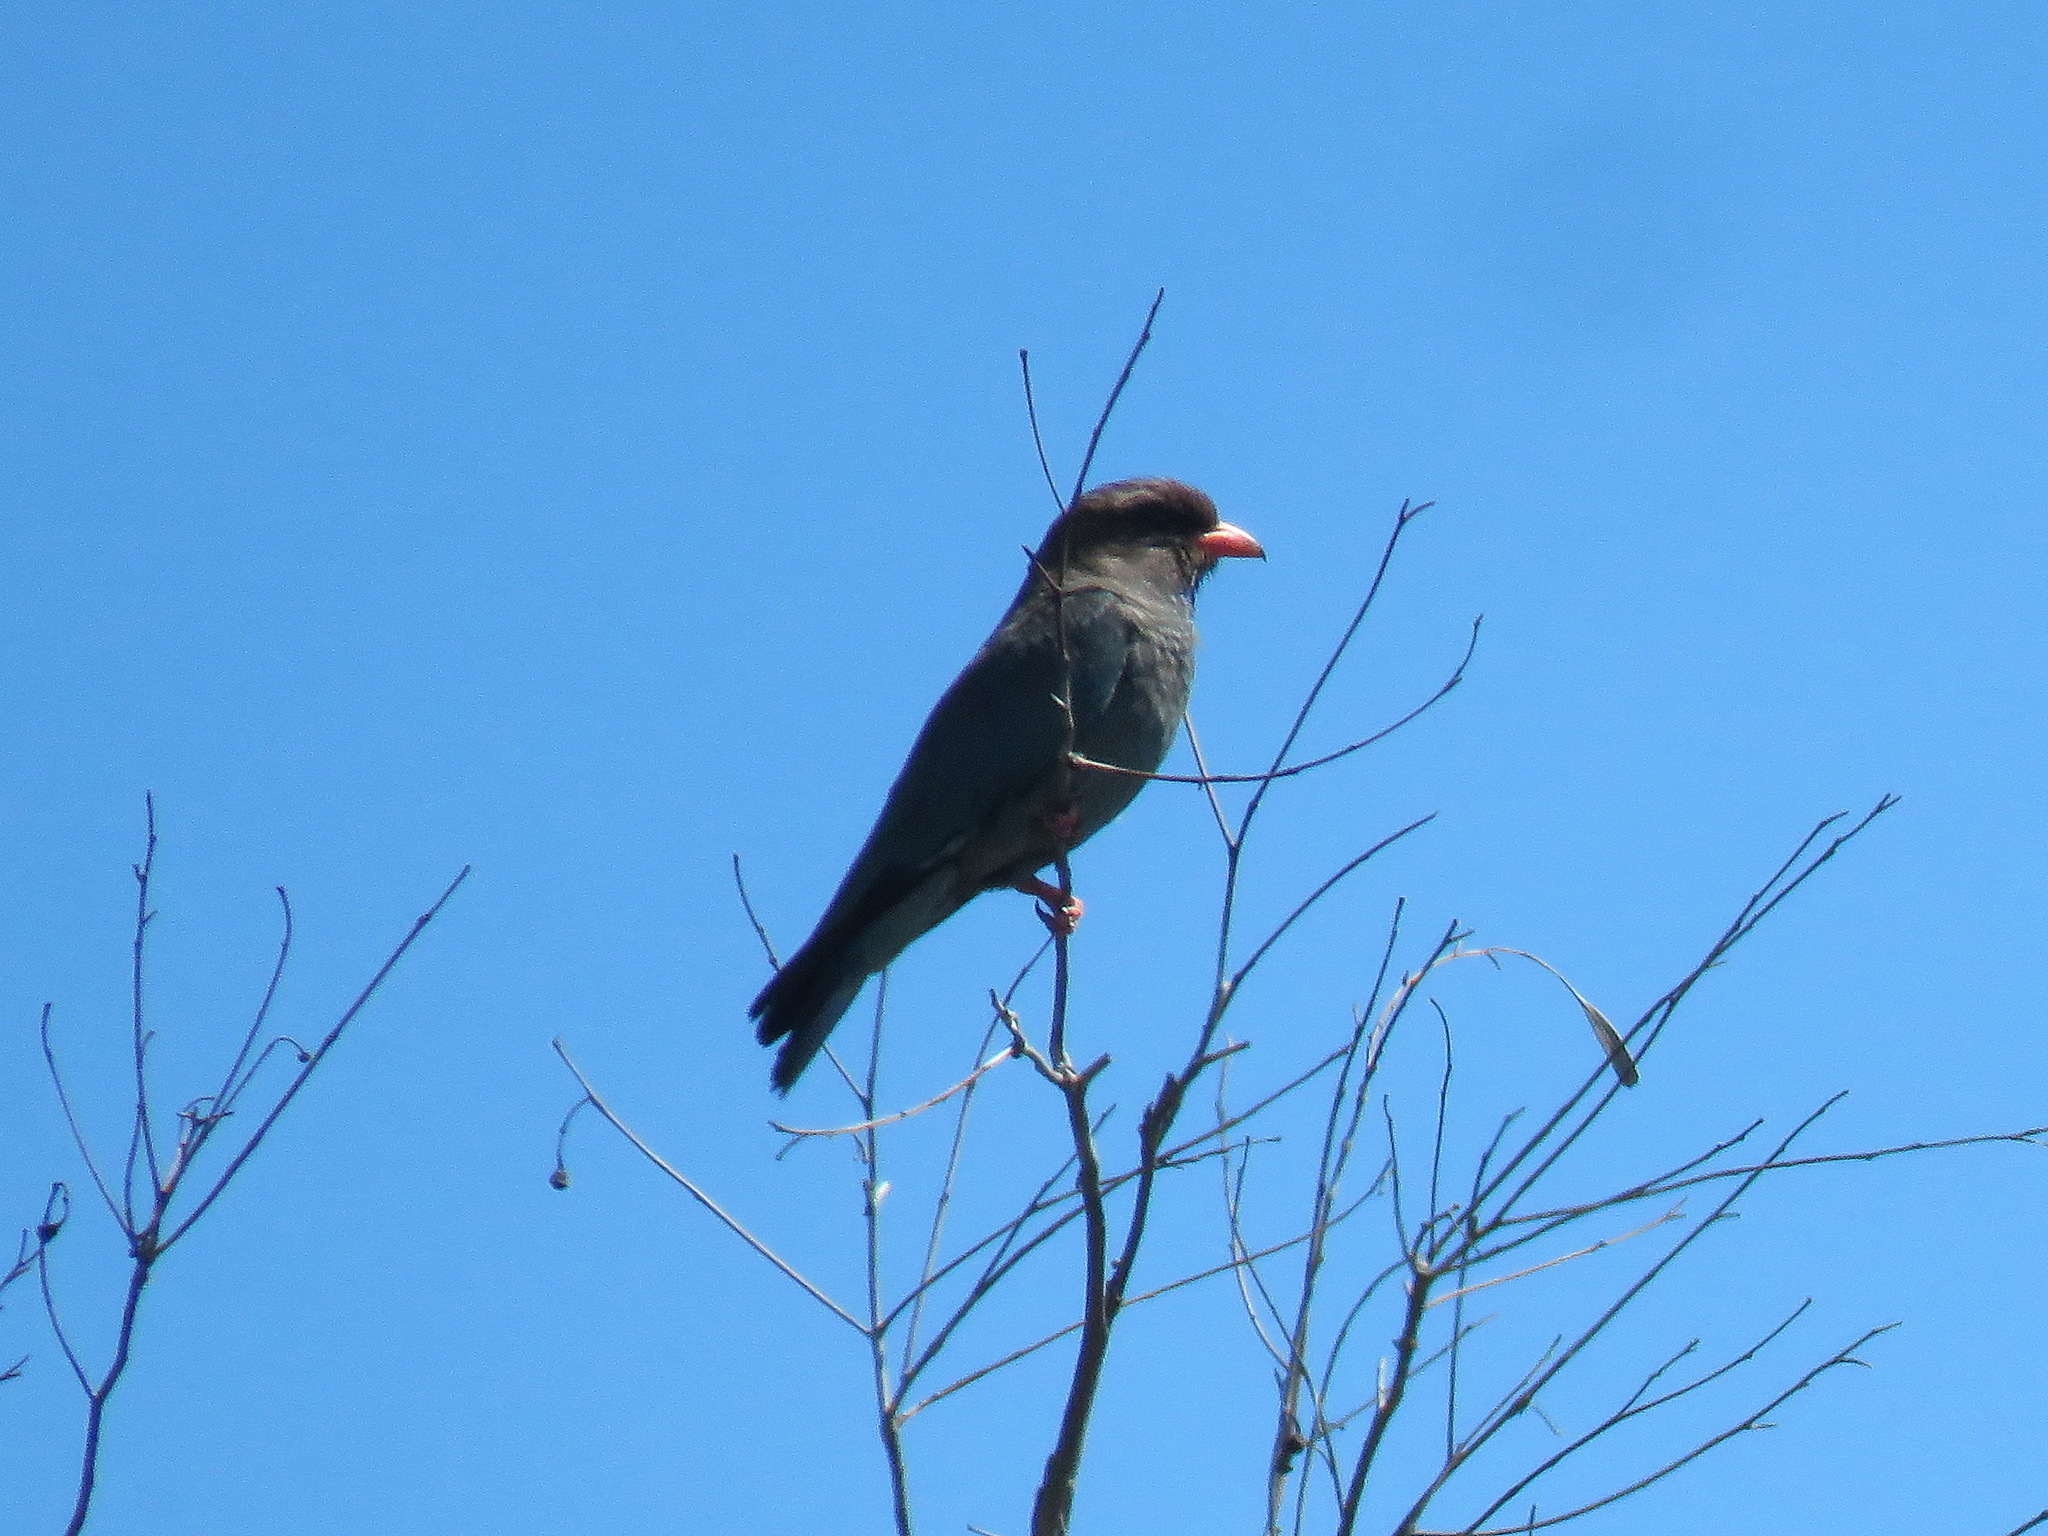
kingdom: Animalia
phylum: Chordata
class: Aves
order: Coraciiformes
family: Coraciidae
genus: Eurystomus
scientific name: Eurystomus orientalis
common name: Oriental dollarbird
